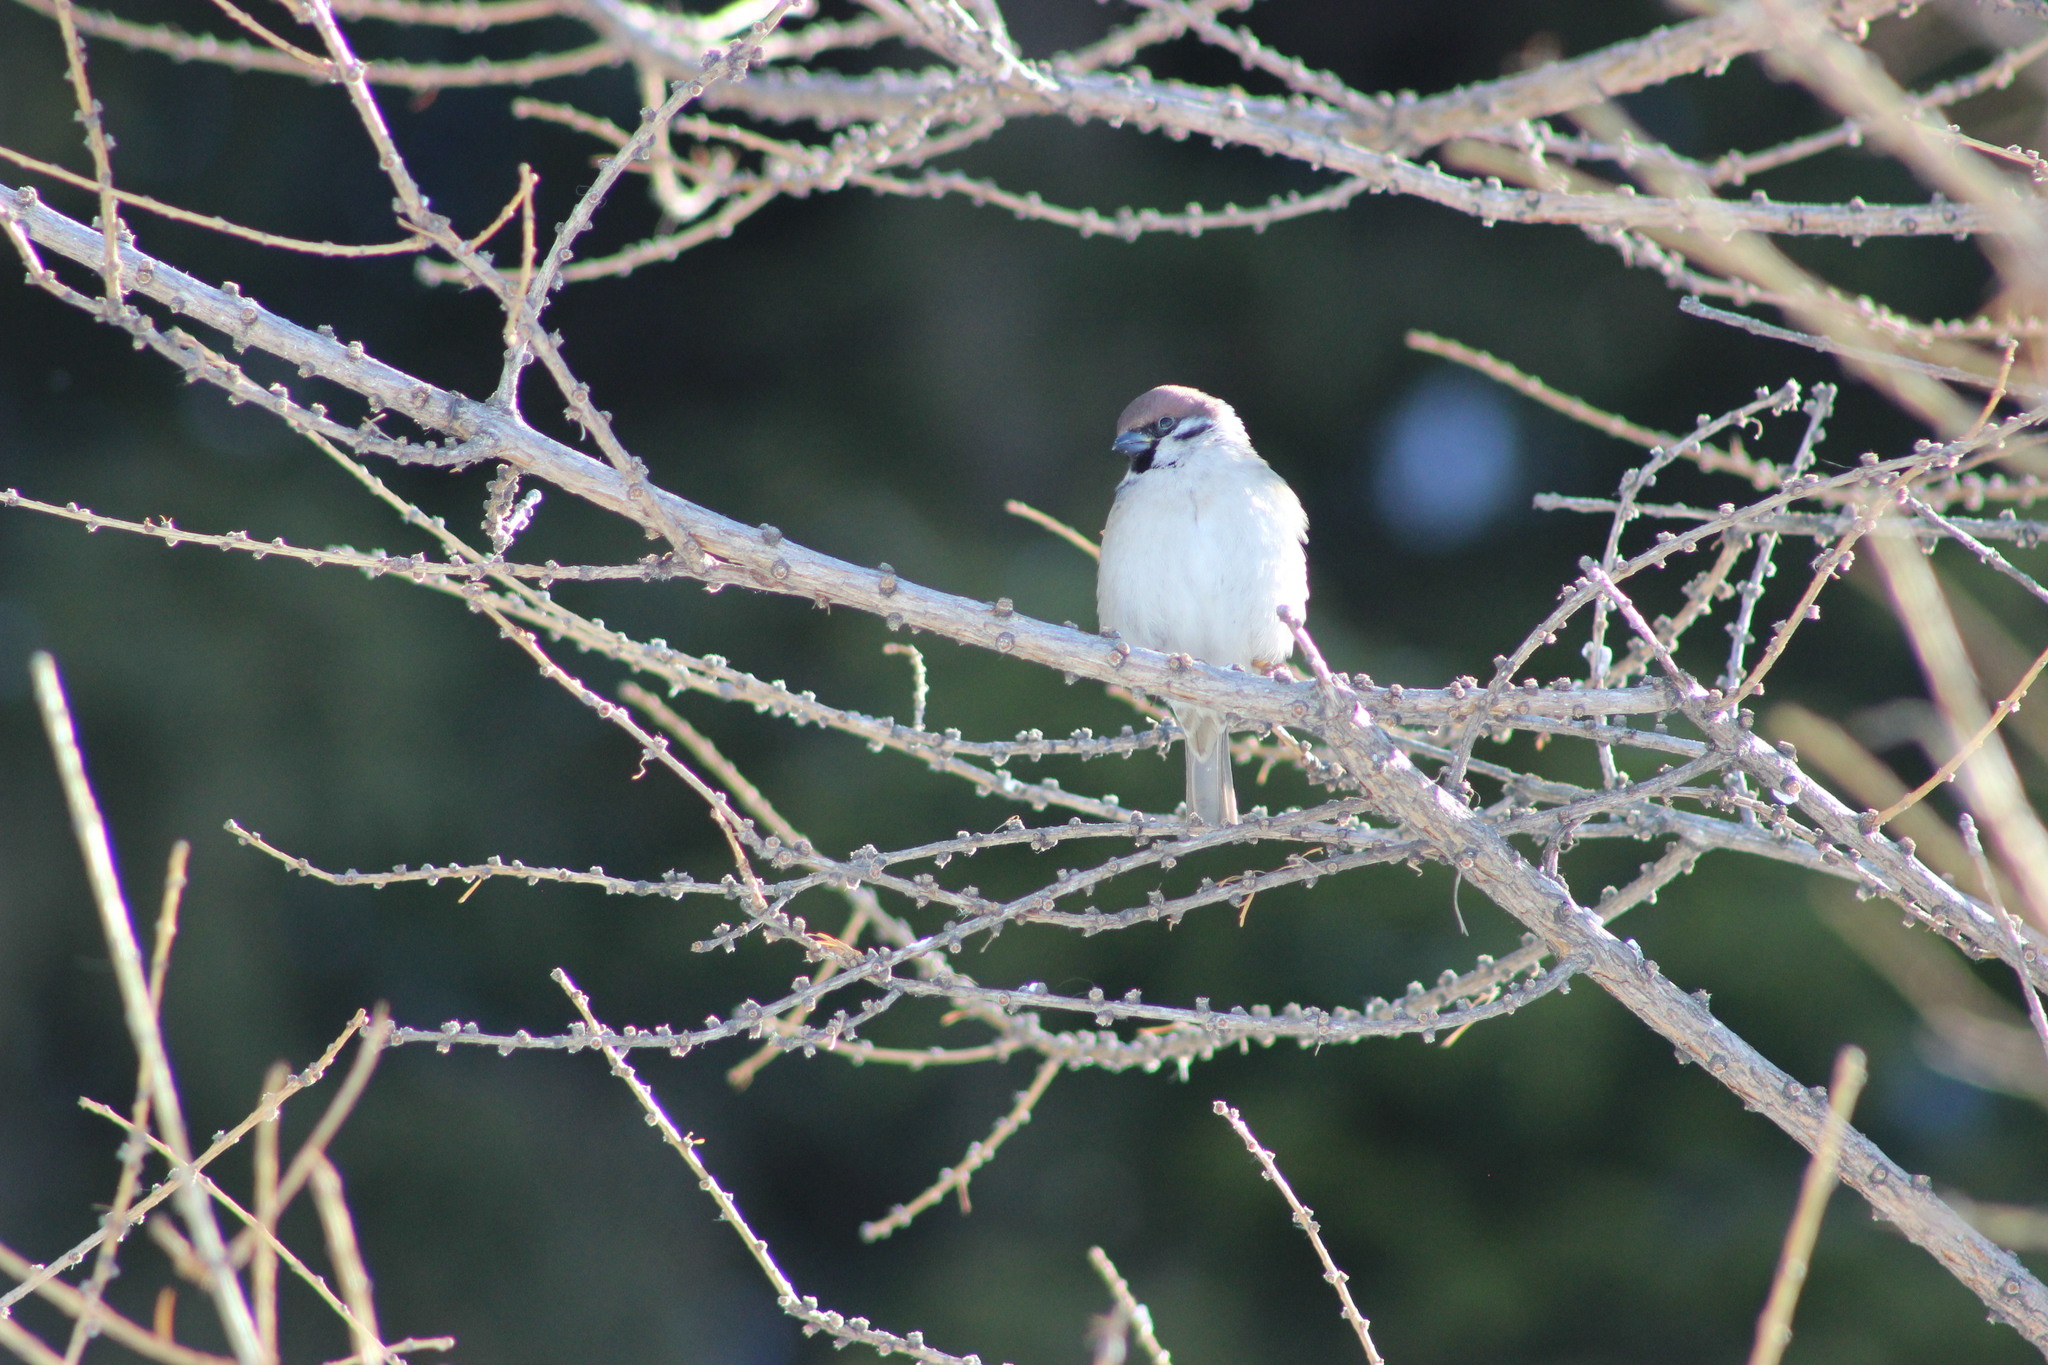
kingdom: Animalia
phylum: Chordata
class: Aves
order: Passeriformes
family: Passeridae
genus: Passer
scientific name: Passer montanus
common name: Eurasian tree sparrow
